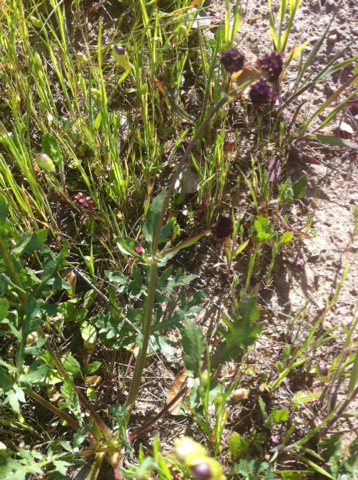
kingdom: Plantae
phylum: Tracheophyta
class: Magnoliopsida
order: Apiales
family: Apiaceae
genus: Sanicula
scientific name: Sanicula bipinnatifida
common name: Shoe-buttons
